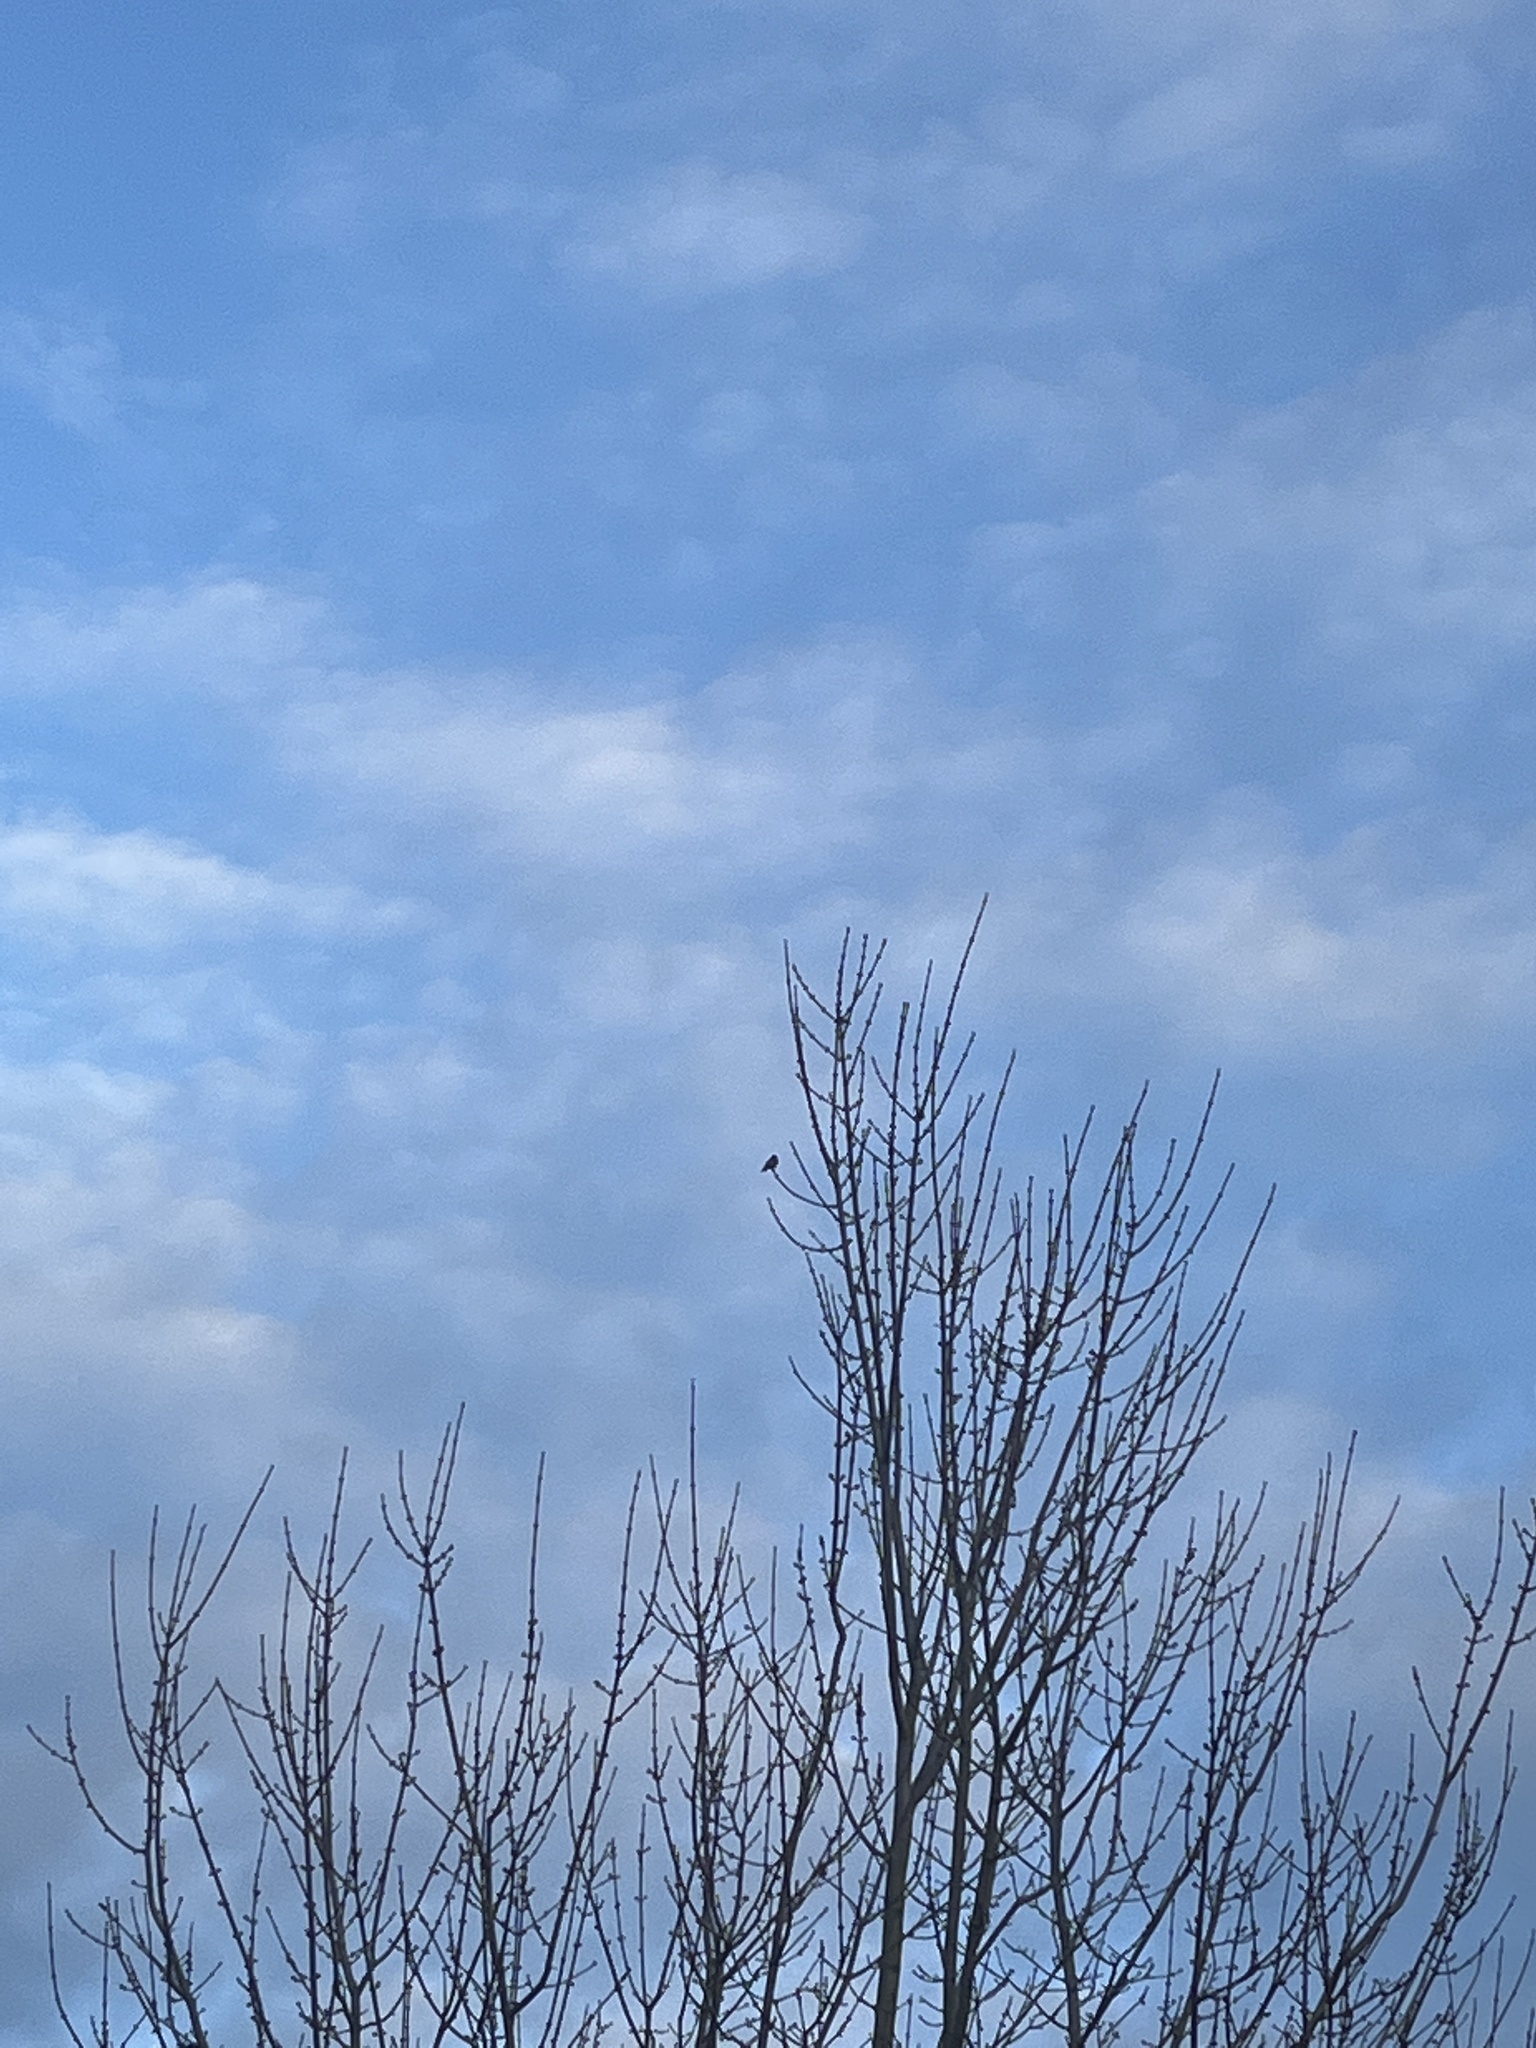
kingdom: Animalia
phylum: Chordata
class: Aves
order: Apodiformes
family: Trochilidae
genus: Calypte
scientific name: Calypte anna
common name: Anna's hummingbird
